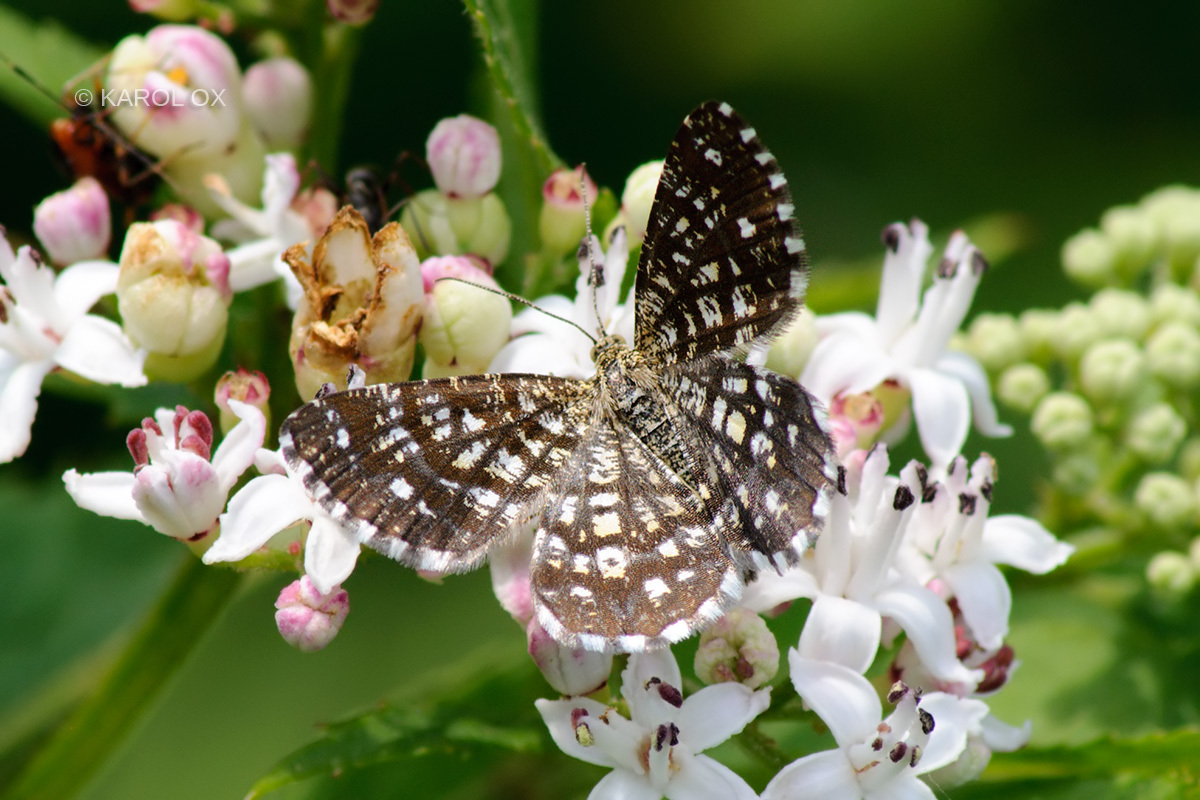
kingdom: Animalia
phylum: Arthropoda
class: Insecta
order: Lepidoptera
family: Geometridae
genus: Chiasmia
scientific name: Chiasmia clathrata
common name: Latticed heath
